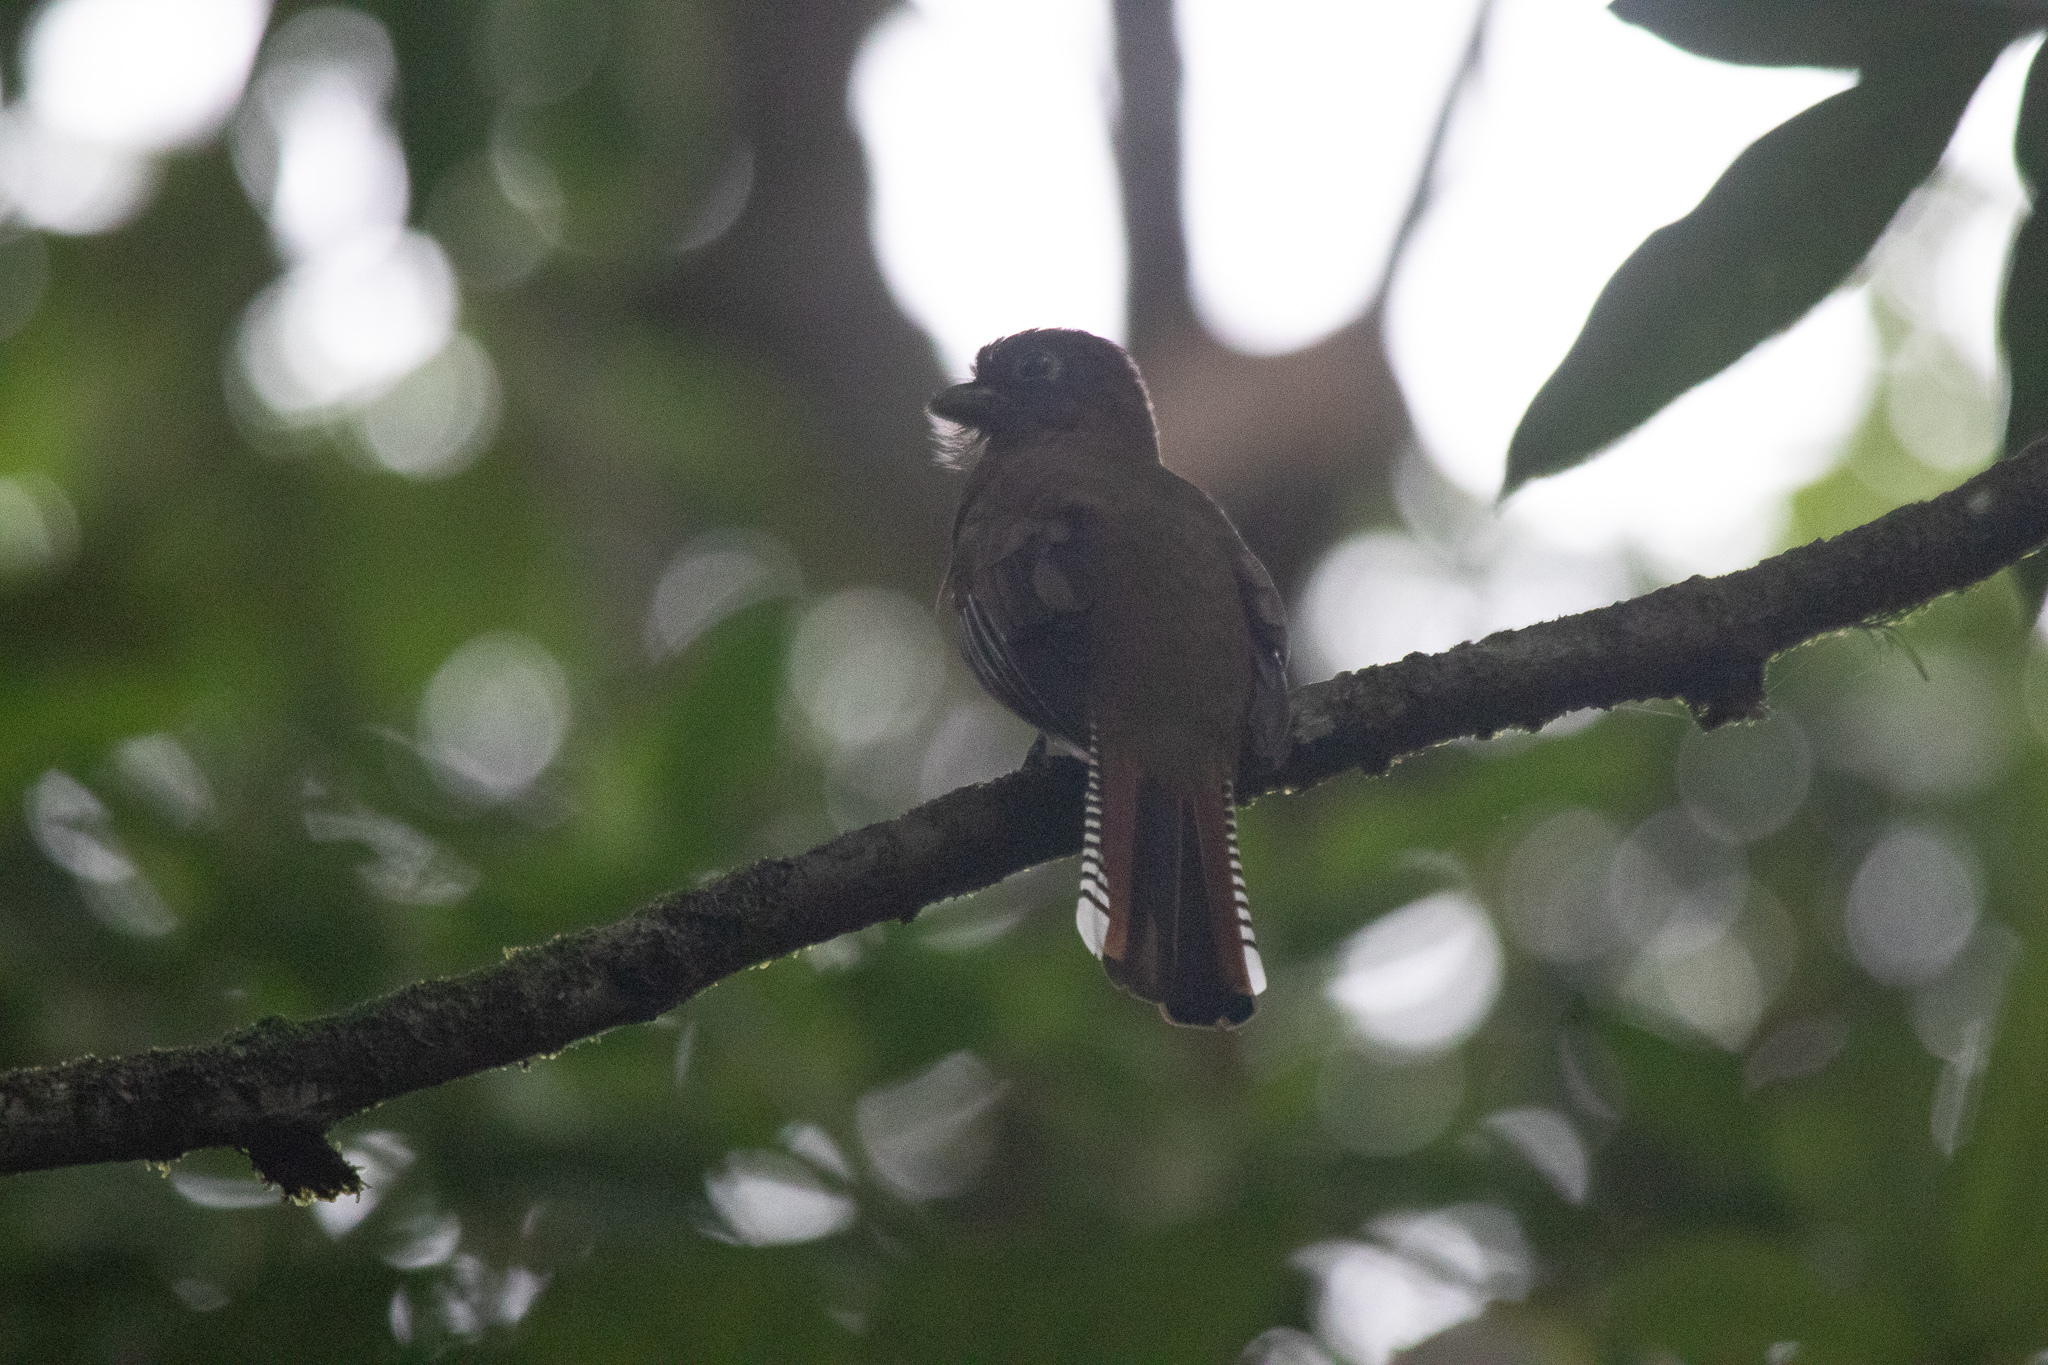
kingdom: Animalia
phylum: Chordata
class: Aves
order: Trogoniformes
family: Trogonidae
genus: Trogon
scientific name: Trogon collaris
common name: Collared trogon
